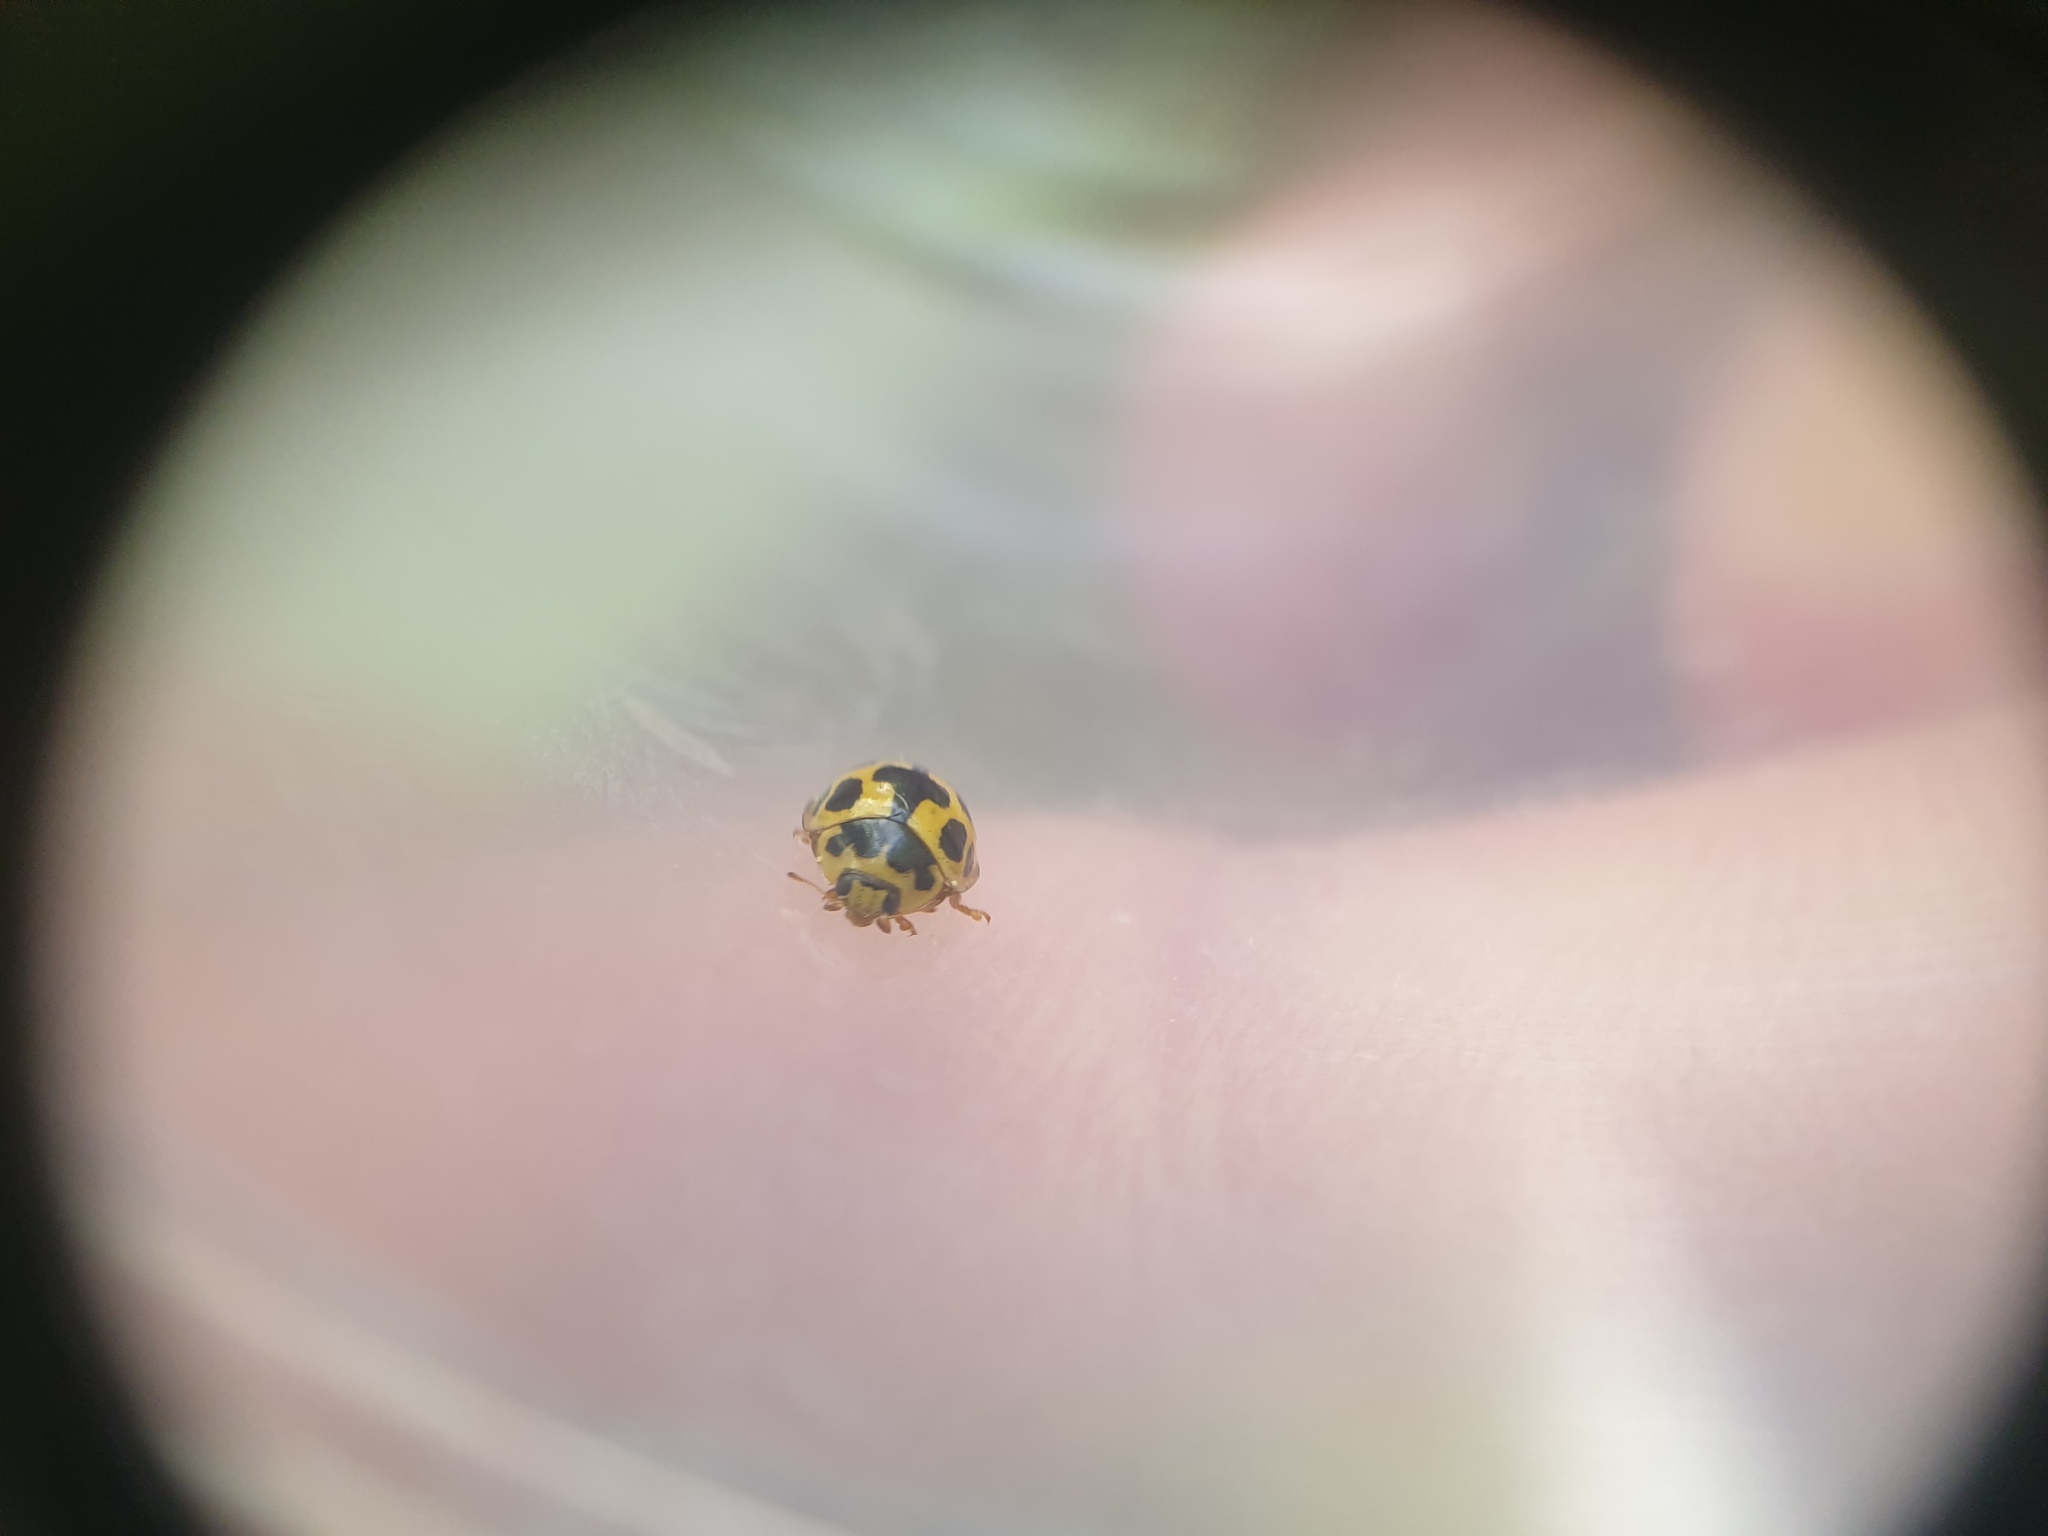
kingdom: Animalia
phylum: Arthropoda
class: Insecta
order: Coleoptera
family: Coccinellidae
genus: Propylaea
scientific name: Propylaea quatuordecimpunctata
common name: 14-spotted ladybird beetle
